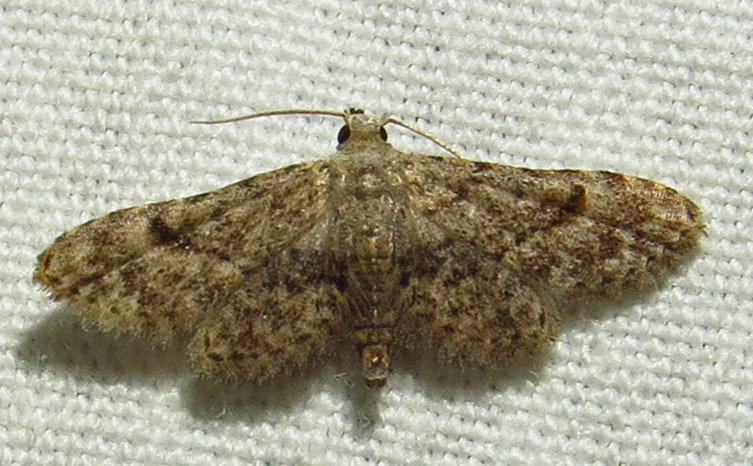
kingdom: Animalia
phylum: Arthropoda
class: Insecta
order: Lepidoptera
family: Erebidae
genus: Sigela
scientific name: Sigela brauneata
